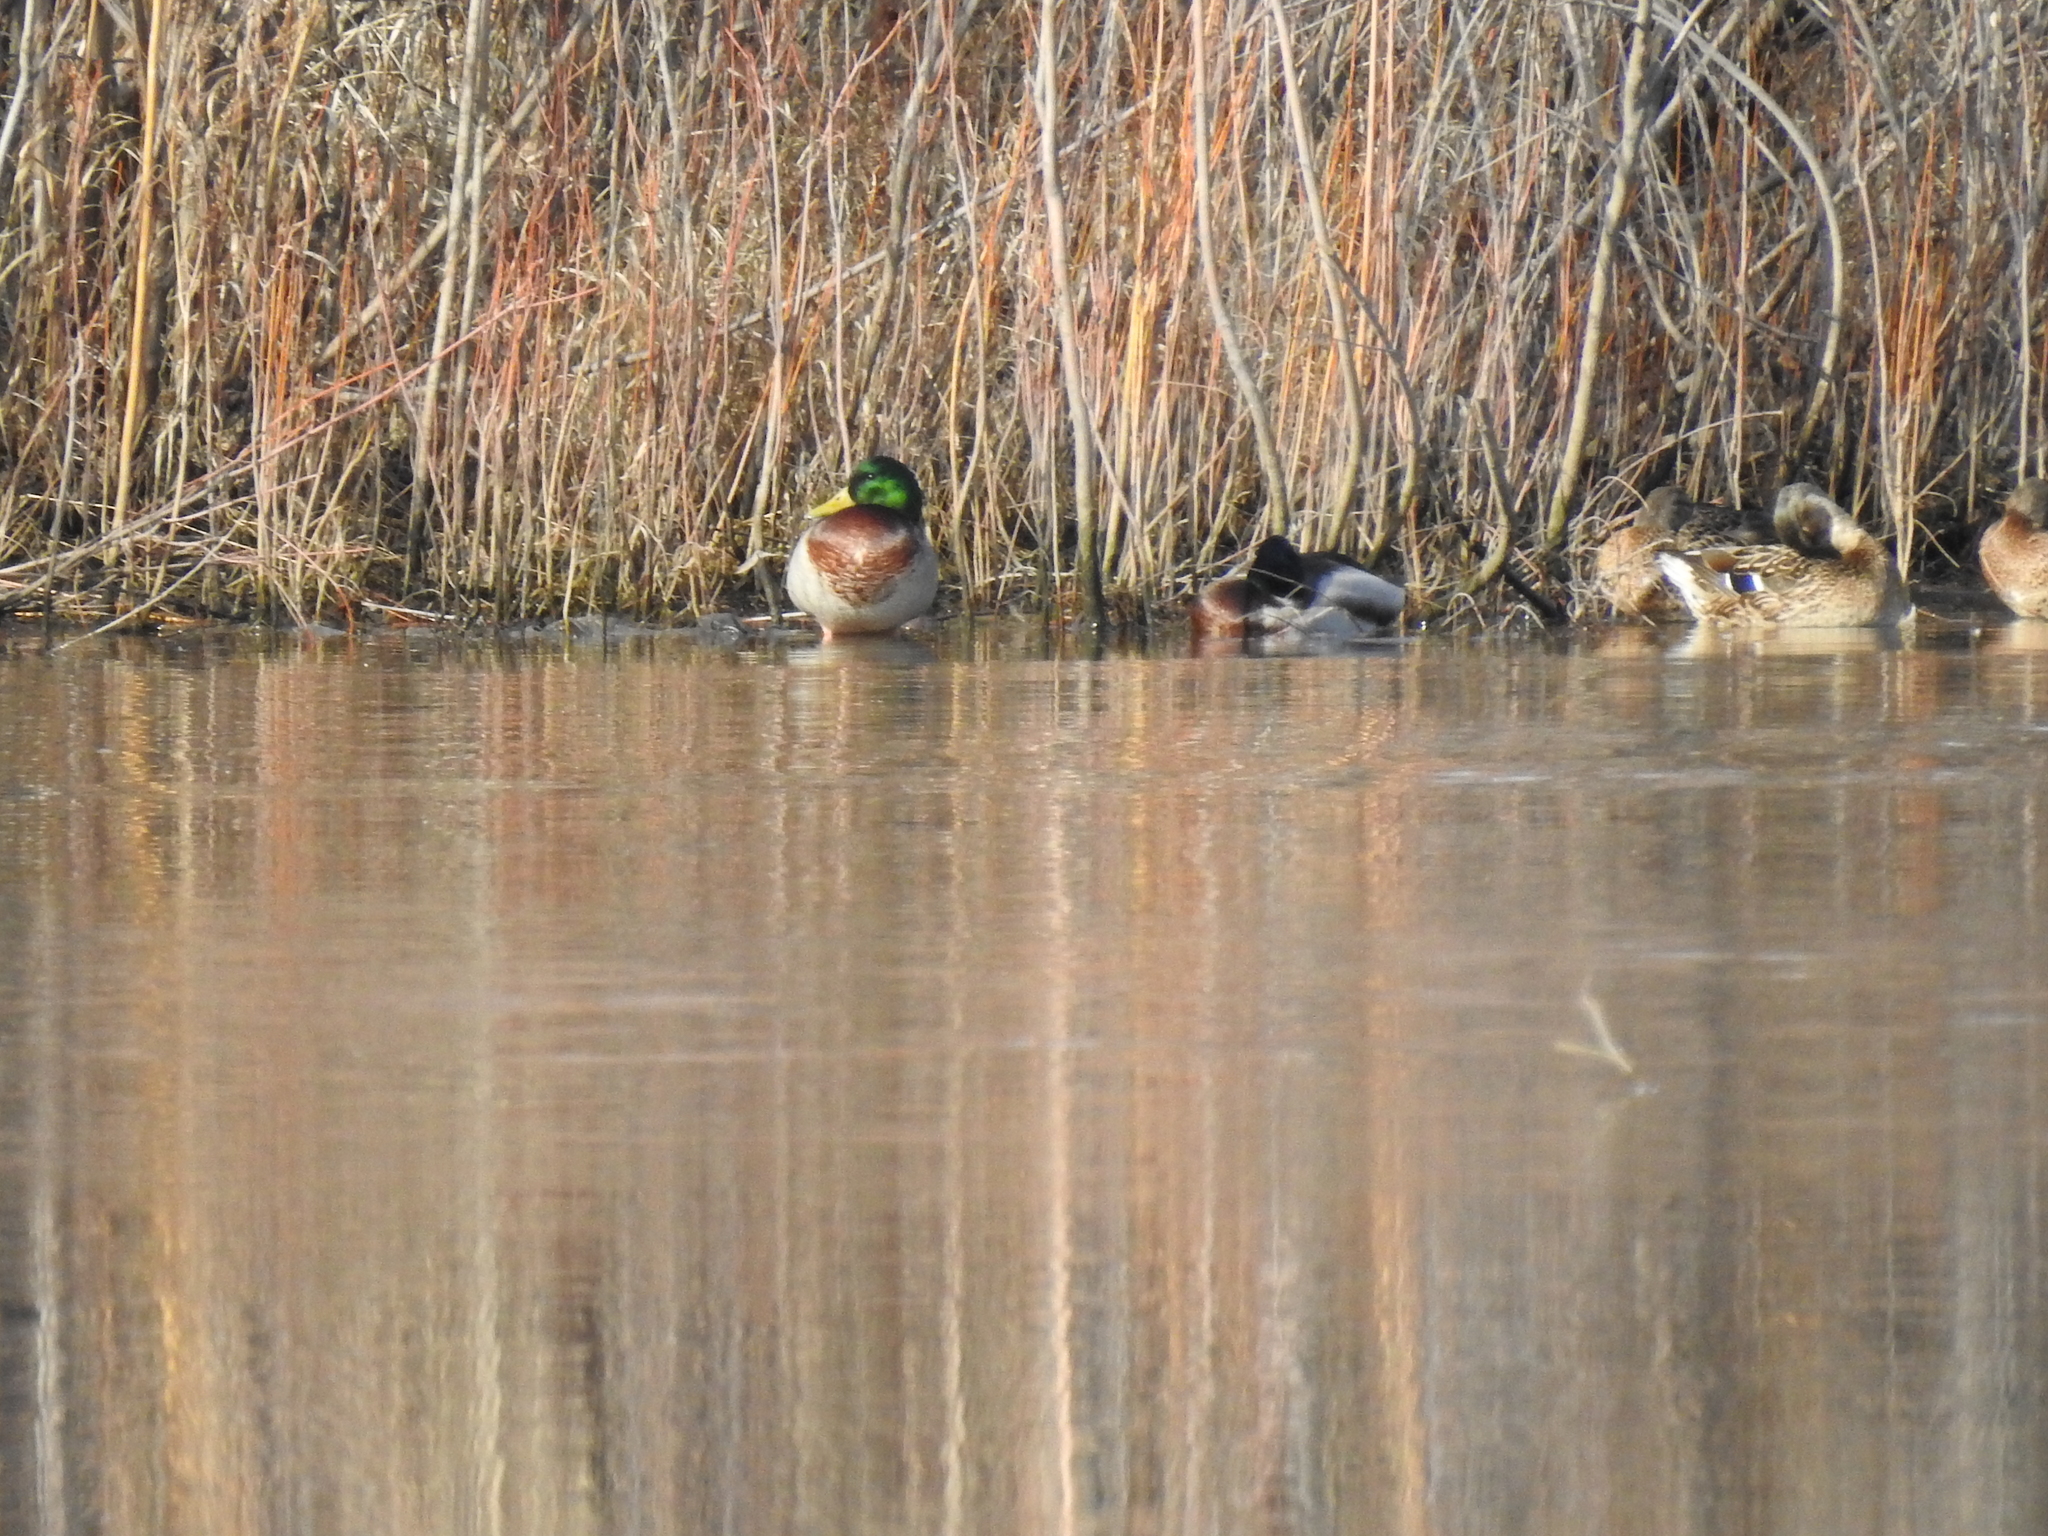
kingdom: Animalia
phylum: Chordata
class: Aves
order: Anseriformes
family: Anatidae
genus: Anas
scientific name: Anas platyrhynchos
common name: Mallard
